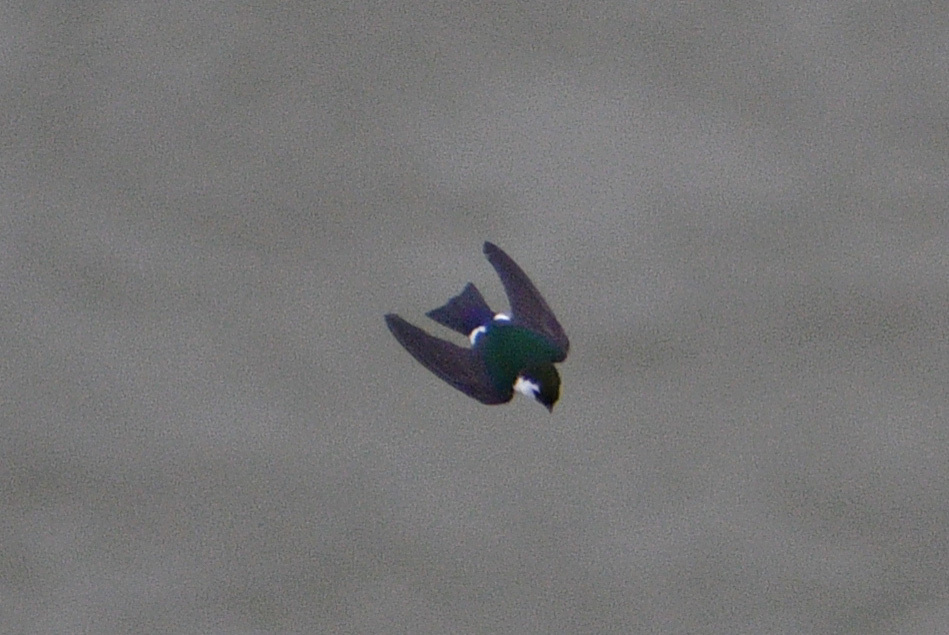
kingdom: Animalia
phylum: Chordata
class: Aves
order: Passeriformes
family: Hirundinidae
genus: Tachycineta
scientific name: Tachycineta thalassina
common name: Violet-green swallow
